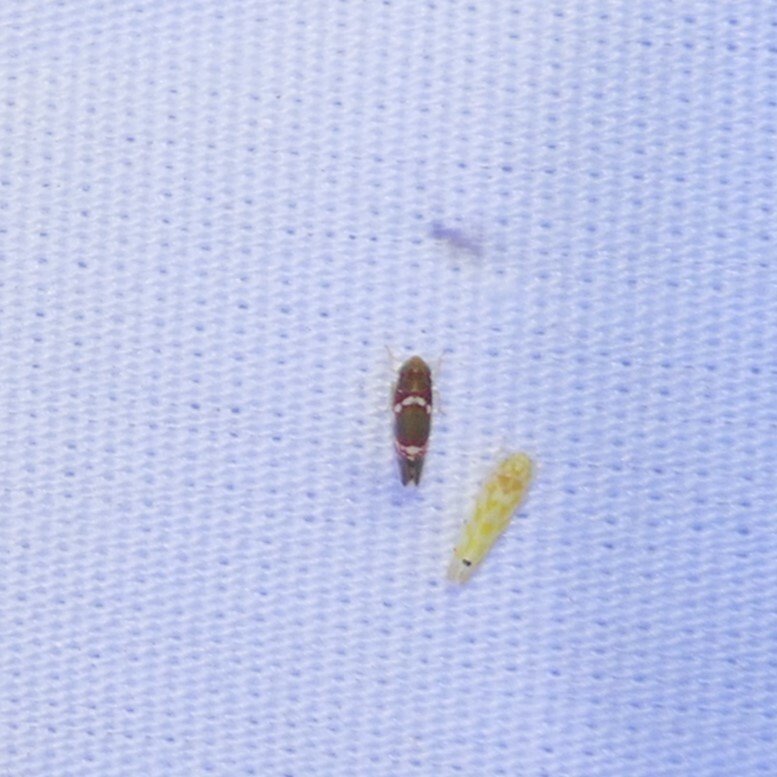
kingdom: Animalia
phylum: Arthropoda
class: Insecta
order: Hemiptera
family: Cicadellidae
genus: Erythroneura
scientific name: Erythroneura vitis
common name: Grapevine leafhopper
